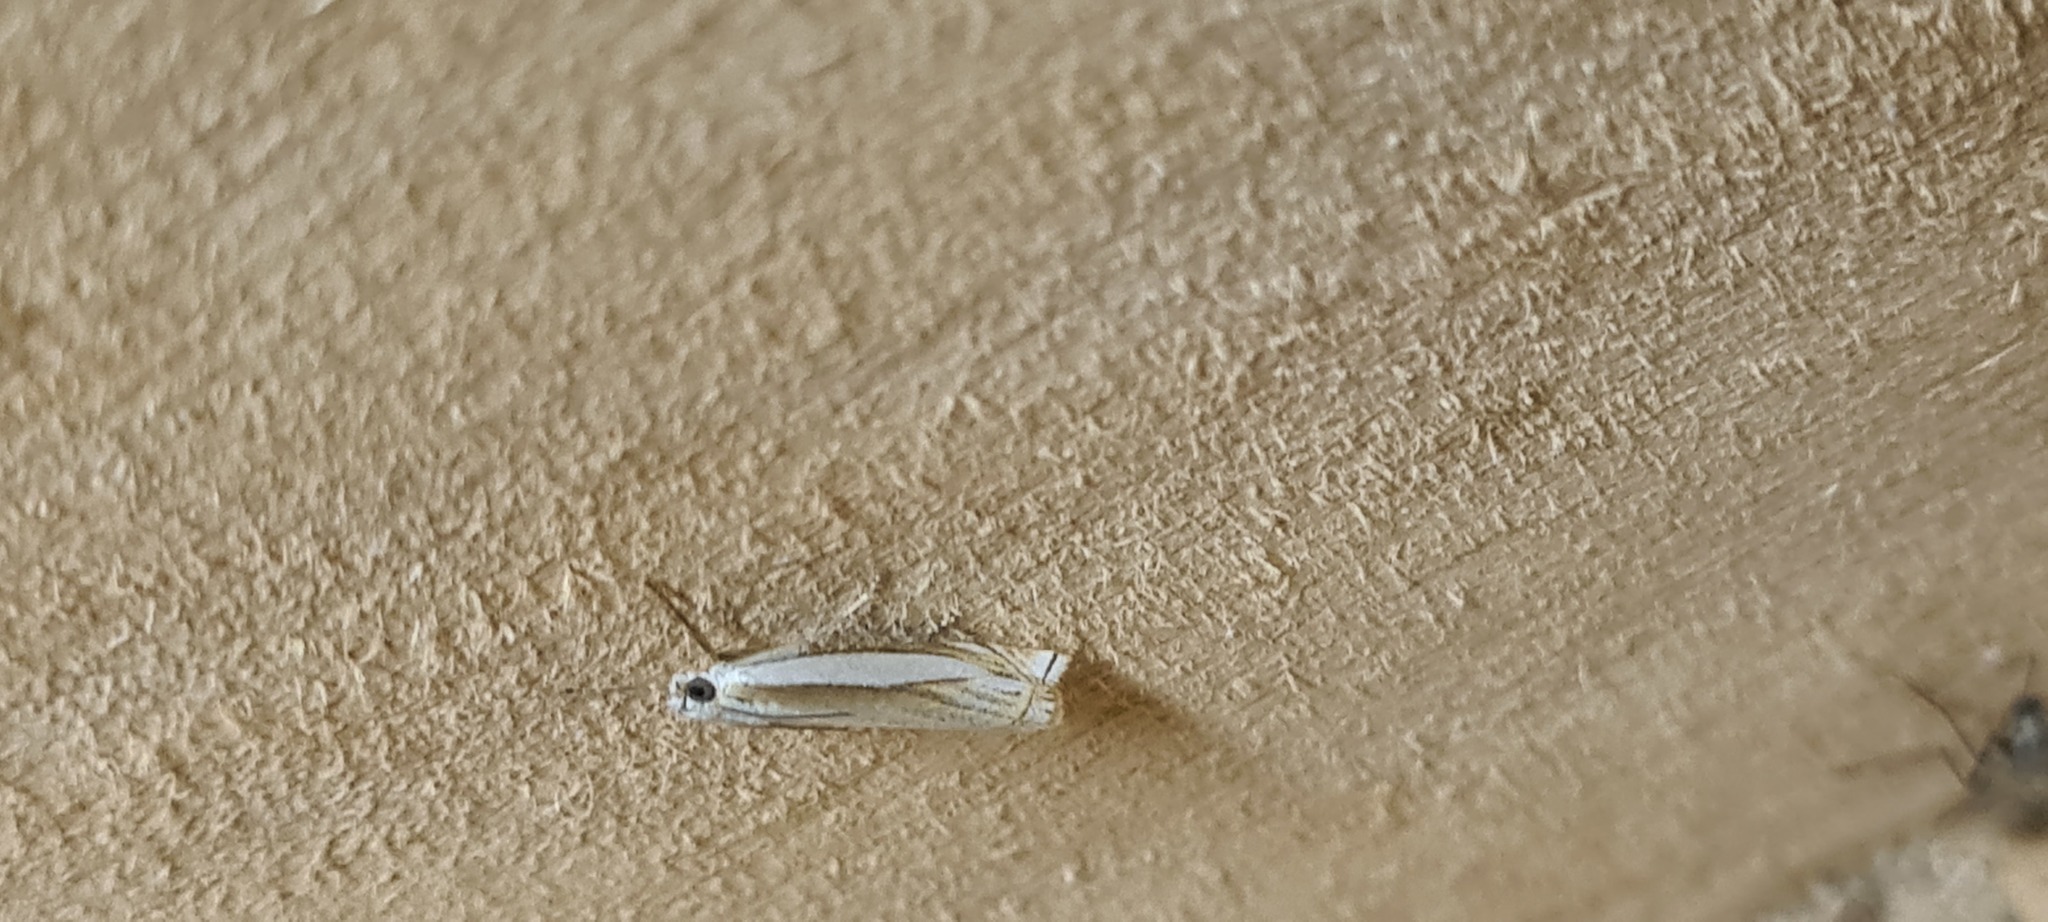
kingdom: Animalia
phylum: Arthropoda
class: Insecta
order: Lepidoptera
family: Crambidae
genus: Crambus
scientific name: Crambus pascuella
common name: Inlaid grass-veneer
